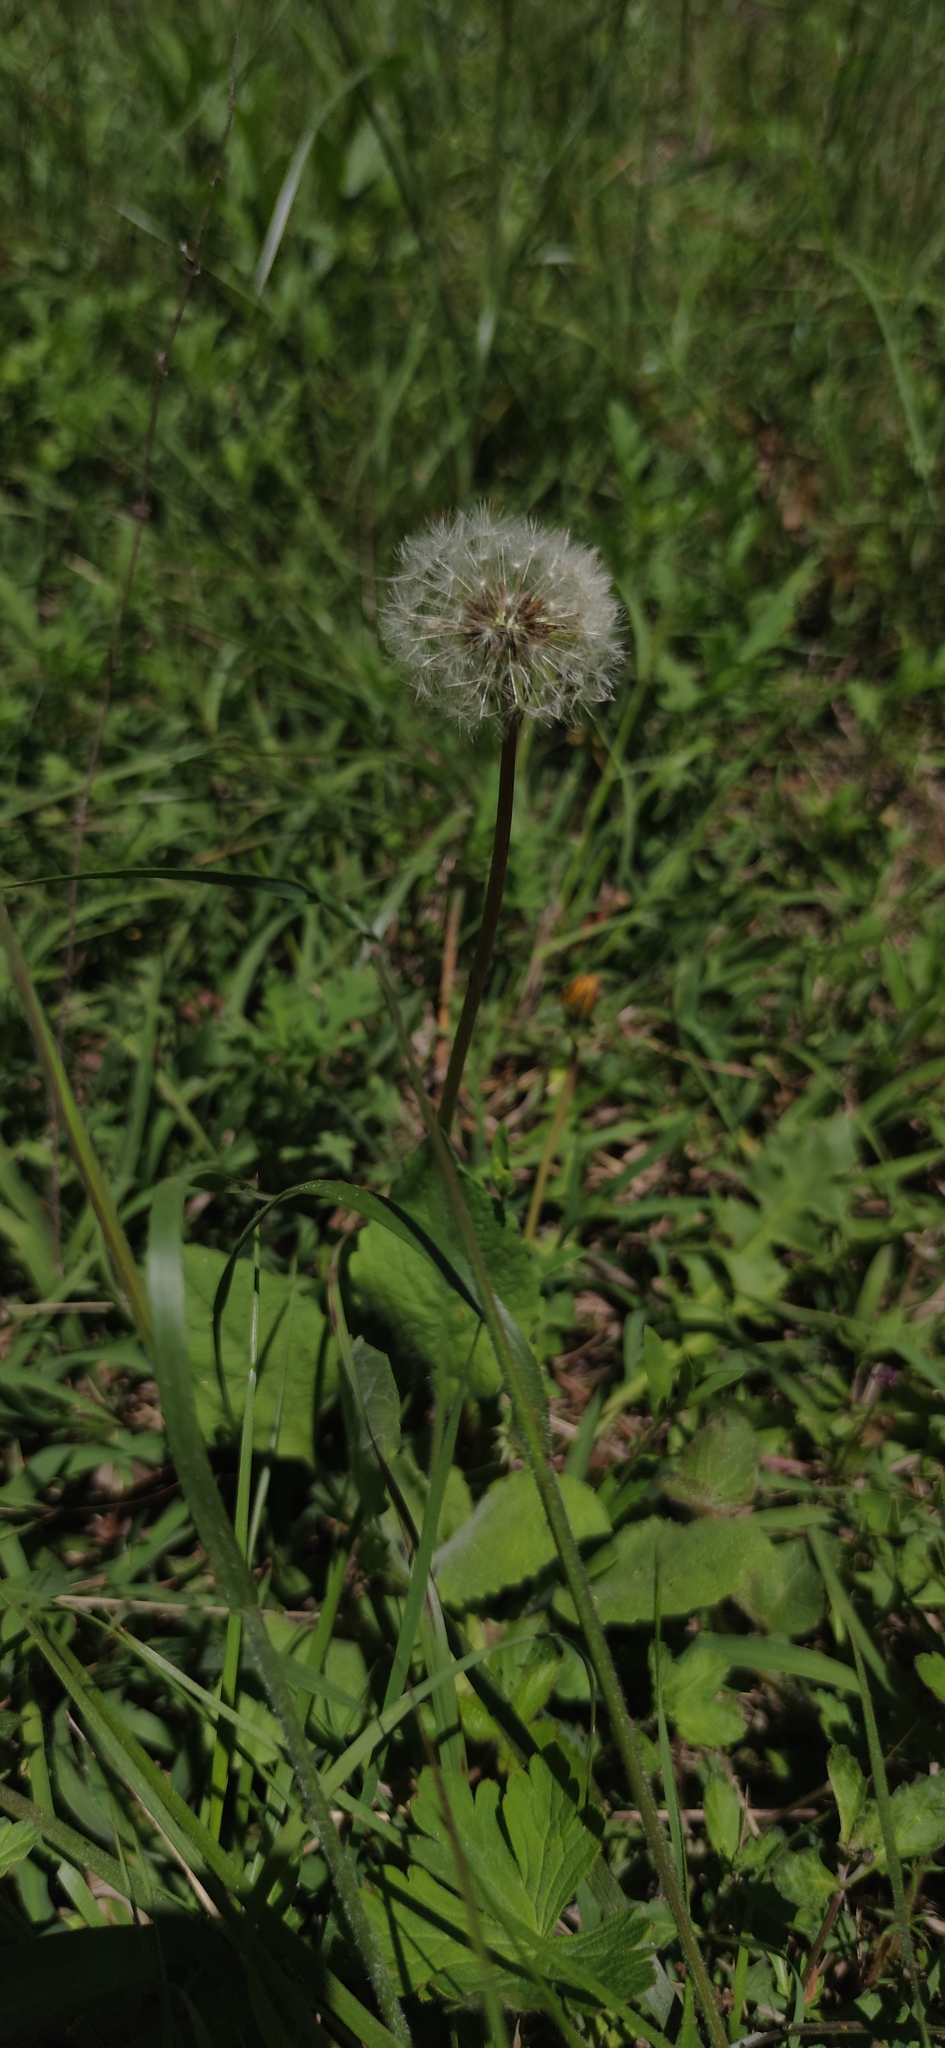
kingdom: Plantae
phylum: Tracheophyta
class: Magnoliopsida
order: Asterales
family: Asteraceae
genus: Taraxacum
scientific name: Taraxacum officinale
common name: Common dandelion
